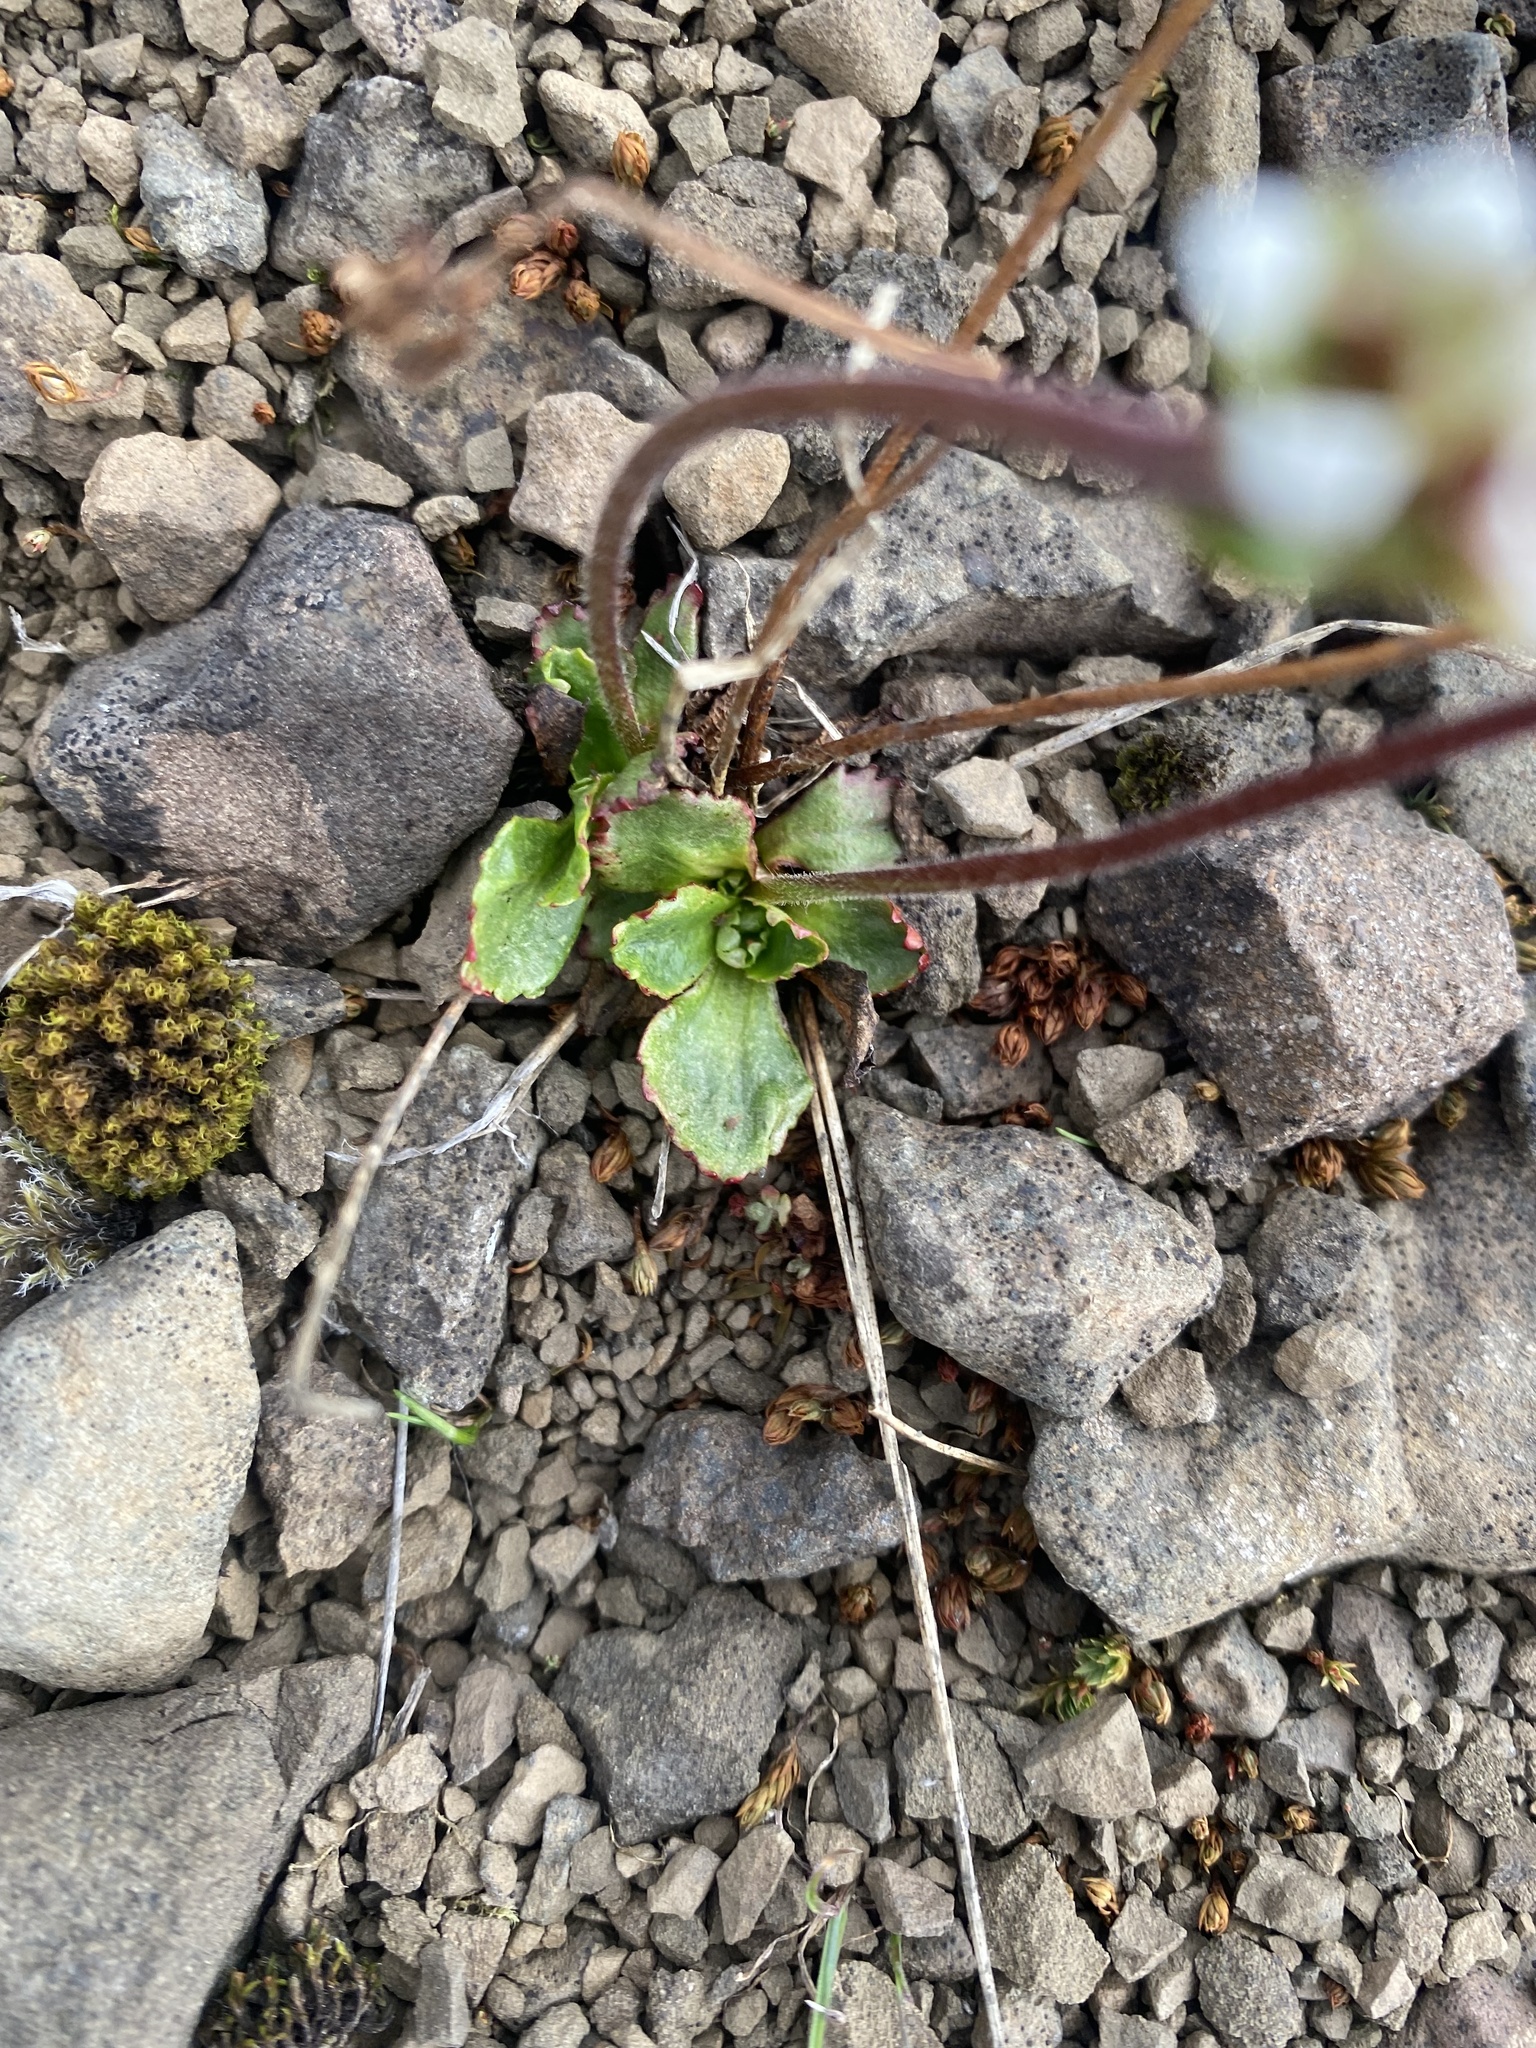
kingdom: Plantae
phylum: Tracheophyta
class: Magnoliopsida
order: Saxifragales
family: Saxifragaceae
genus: Micranthes
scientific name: Micranthes nivalis
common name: Alpine saxifrage
